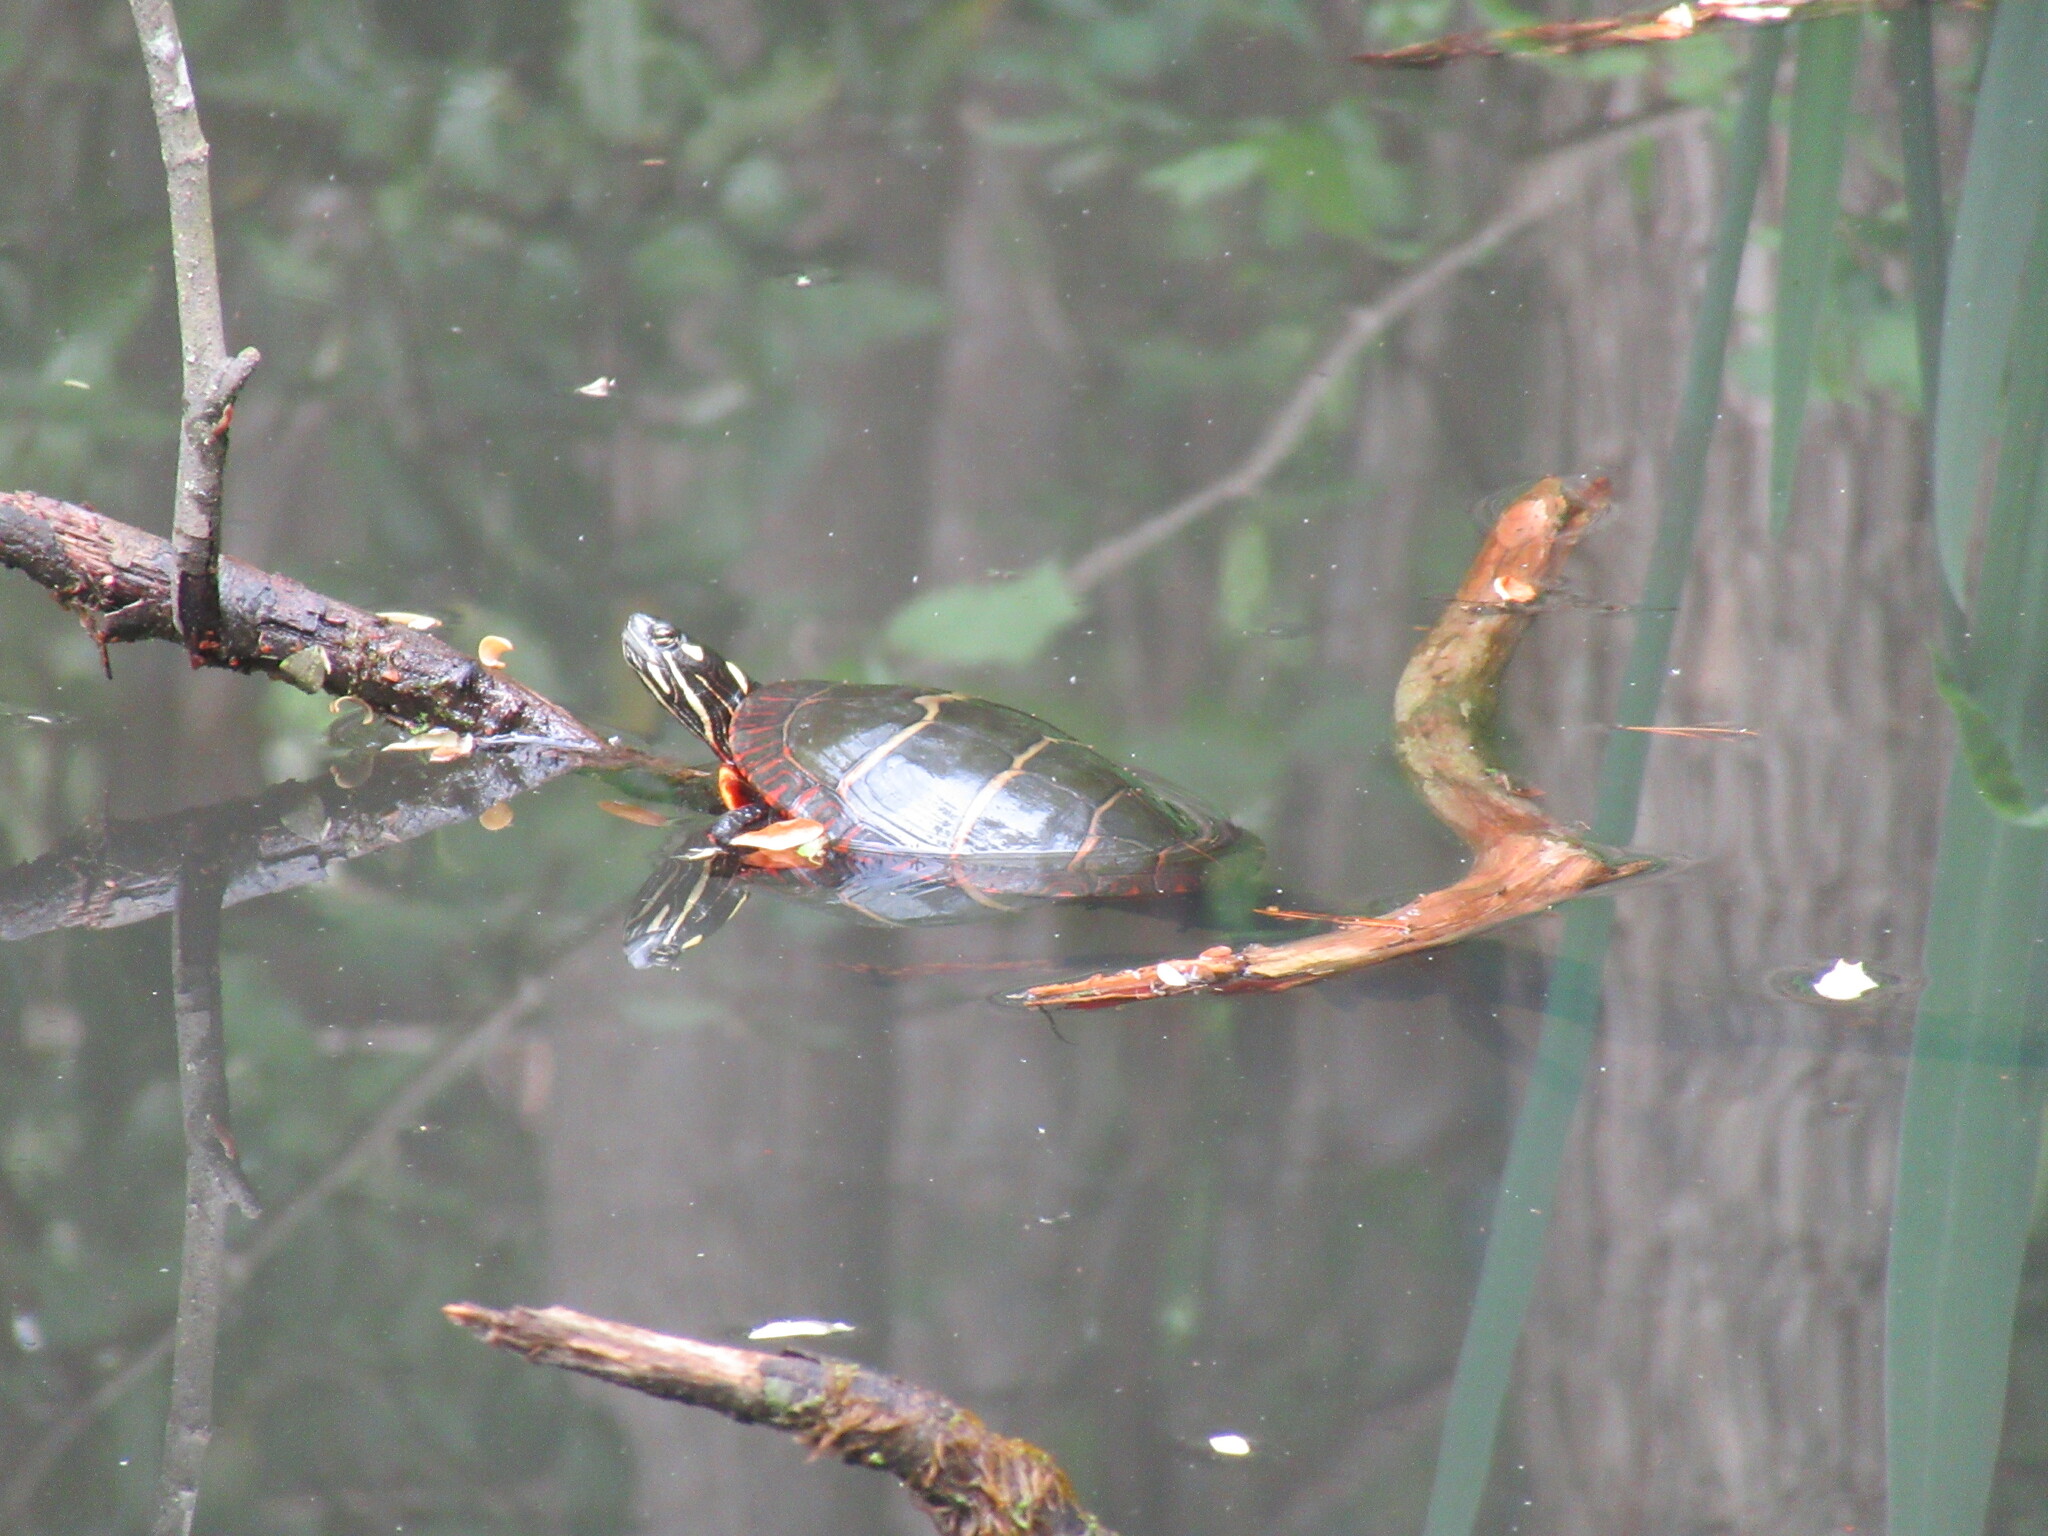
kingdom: Animalia
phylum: Chordata
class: Testudines
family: Emydidae
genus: Chrysemys
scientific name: Chrysemys picta
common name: Painted turtle
